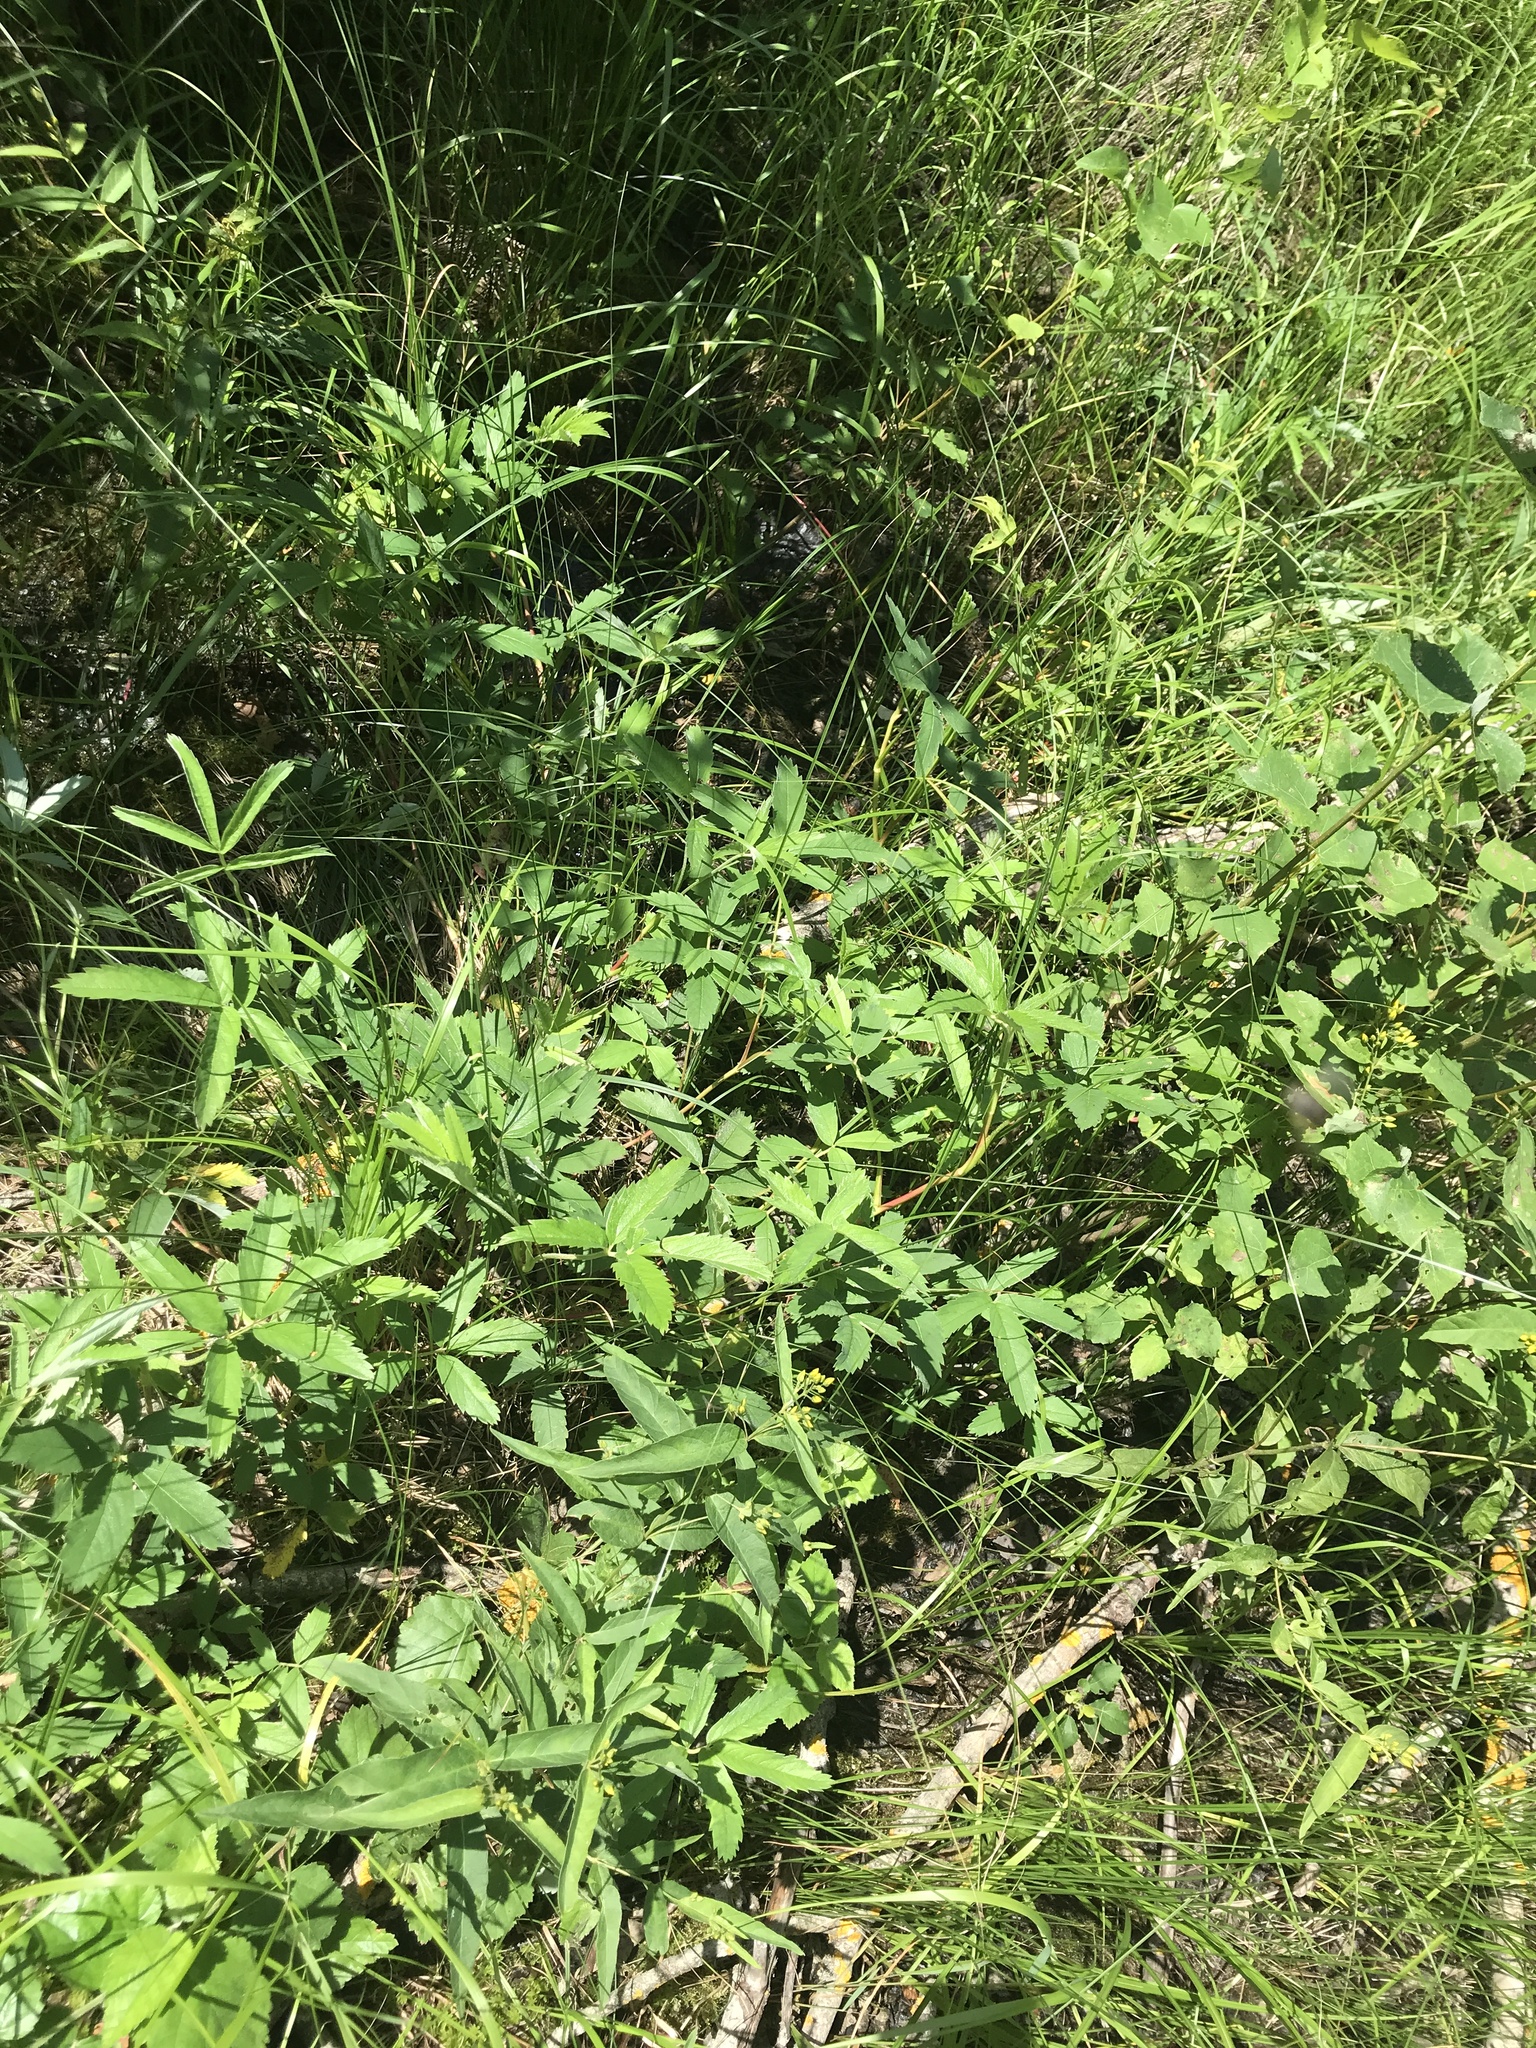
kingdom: Plantae
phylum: Tracheophyta
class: Magnoliopsida
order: Rosales
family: Rosaceae
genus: Comarum
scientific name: Comarum palustre
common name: Marsh cinquefoil
